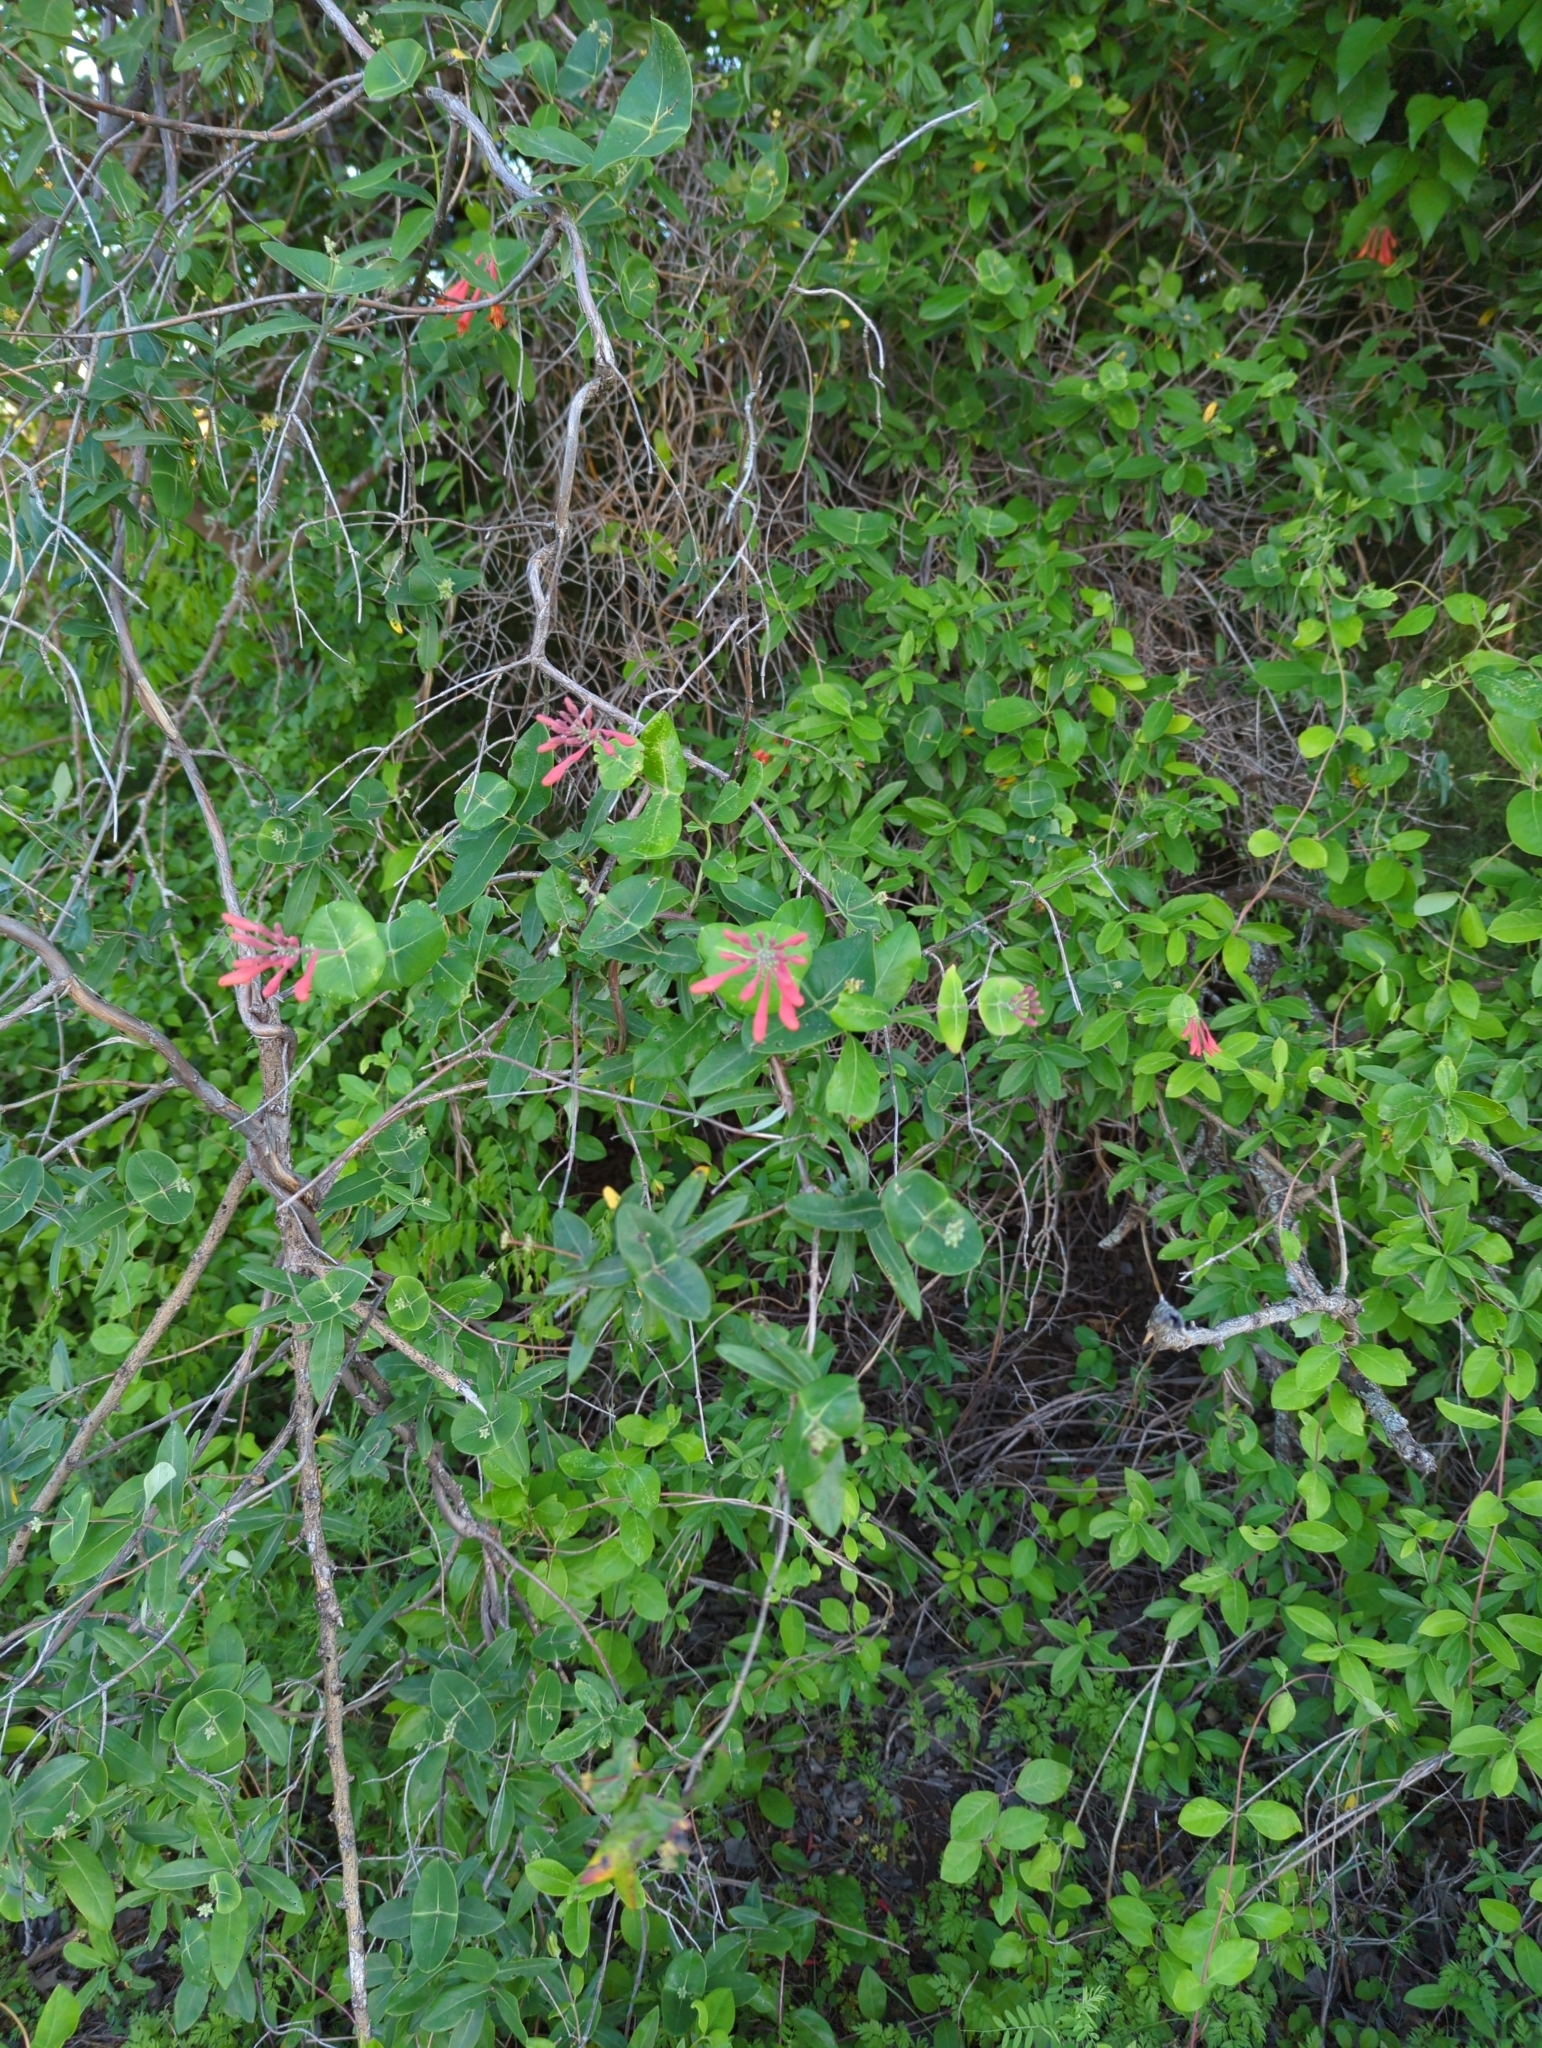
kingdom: Plantae
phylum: Tracheophyta
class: Magnoliopsida
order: Dipsacales
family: Caprifoliaceae
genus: Lonicera
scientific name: Lonicera sempervirens
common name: Coral honeysuckle
